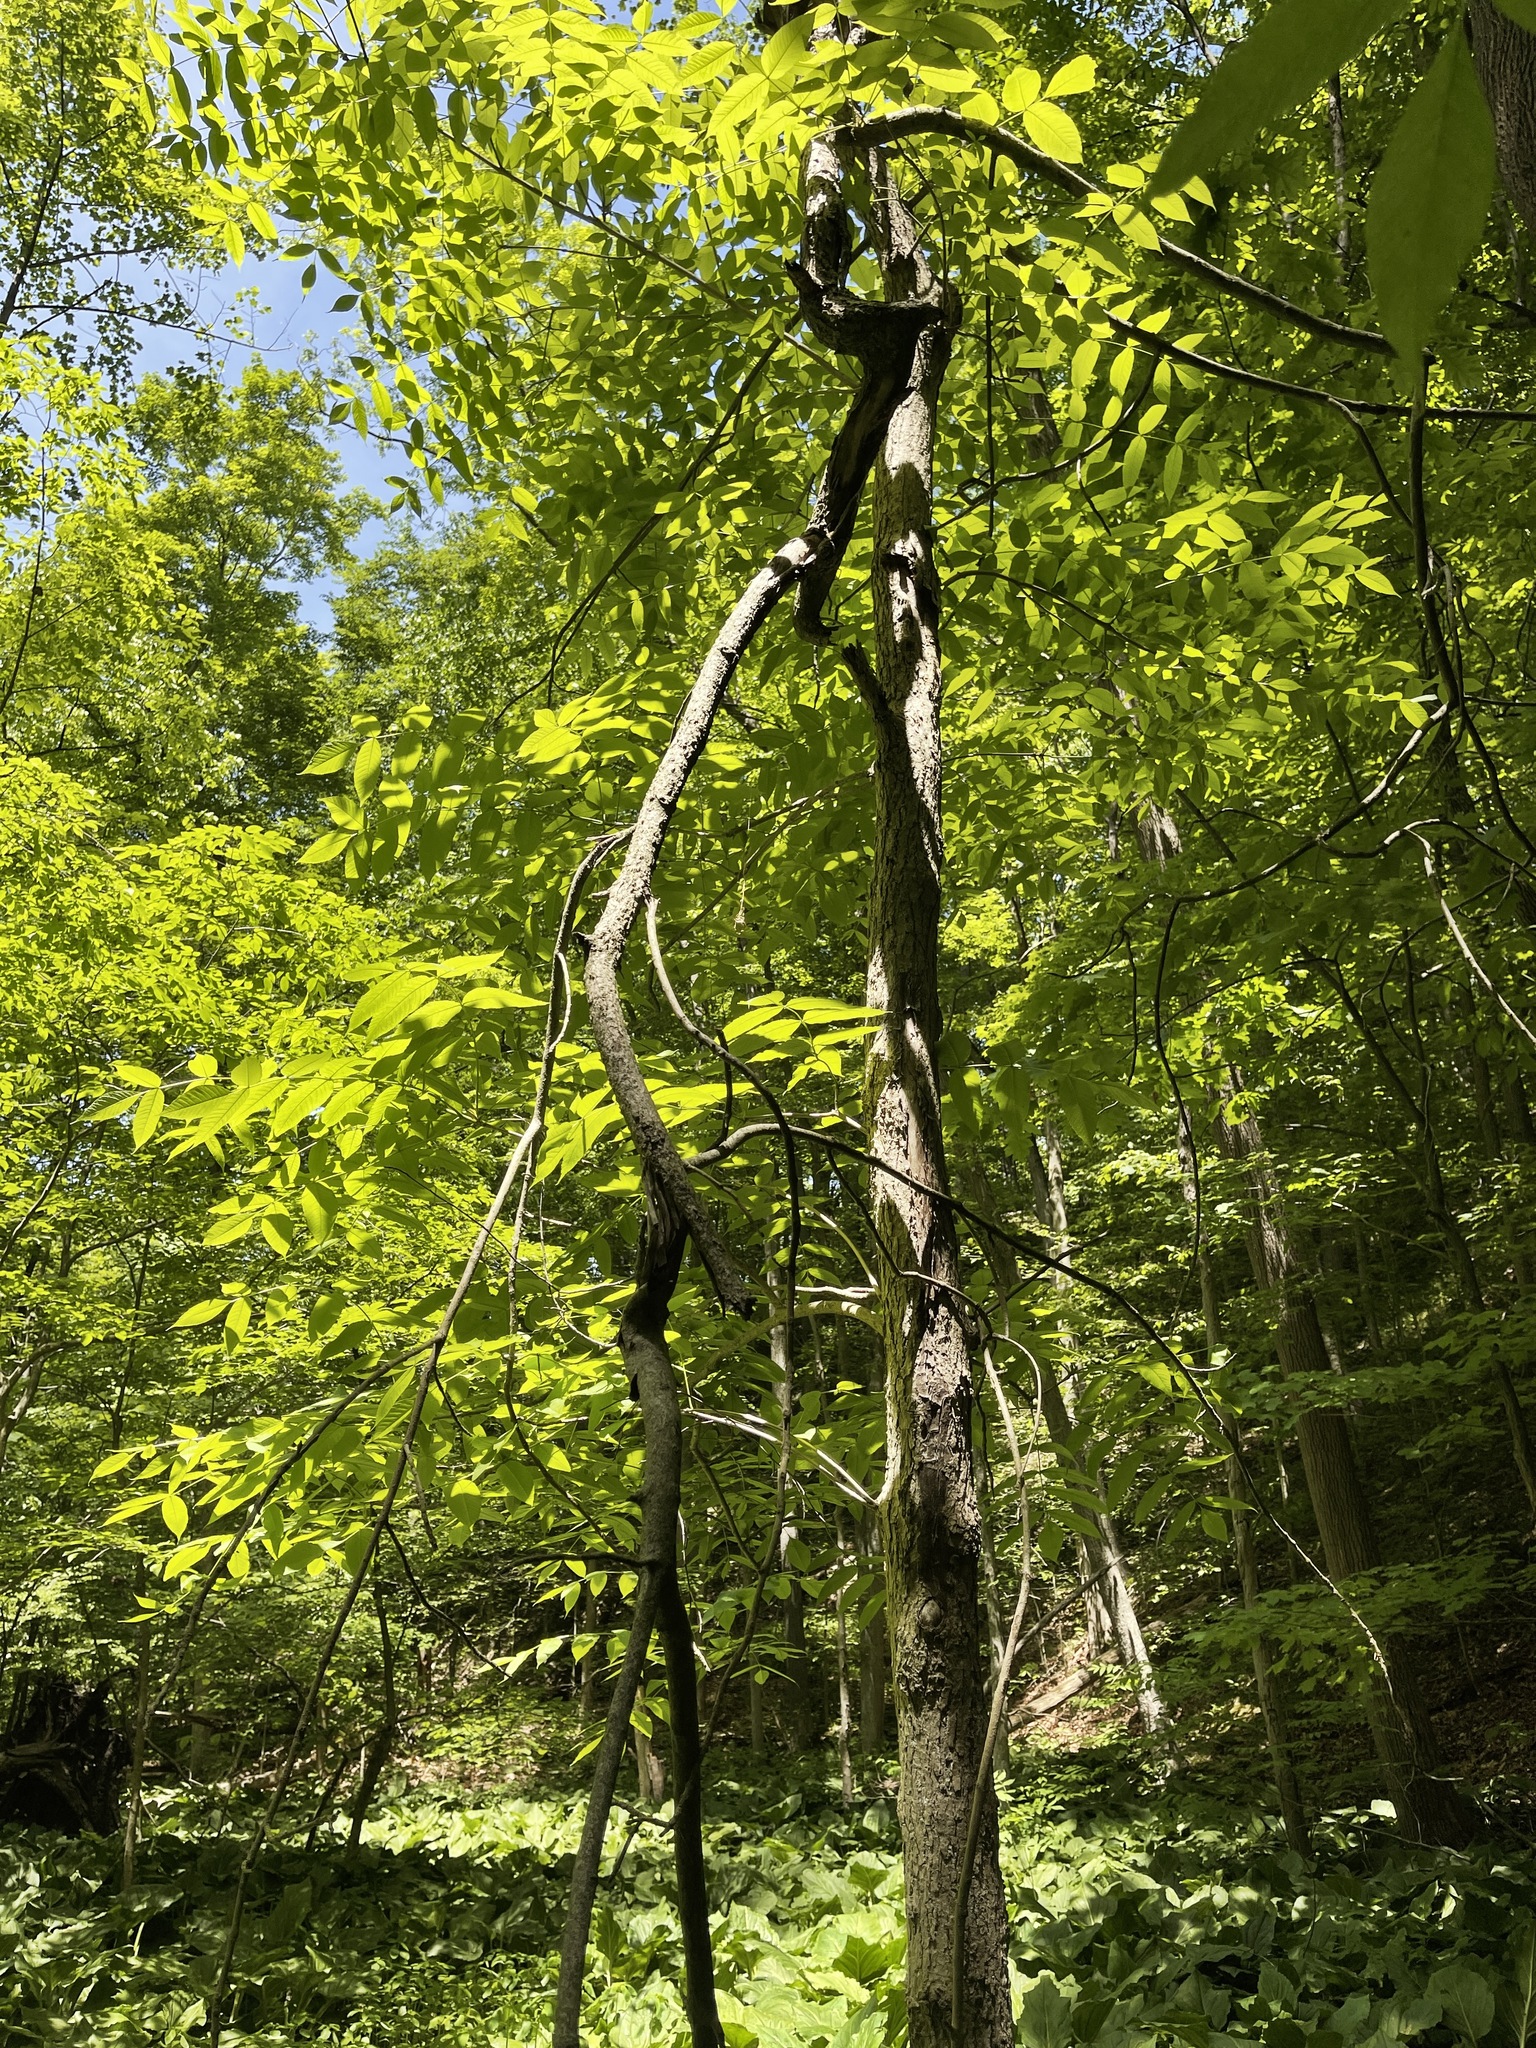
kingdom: Plantae
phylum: Tracheophyta
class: Magnoliopsida
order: Lamiales
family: Oleaceae
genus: Fraxinus
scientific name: Fraxinus nigra
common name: Black ash
